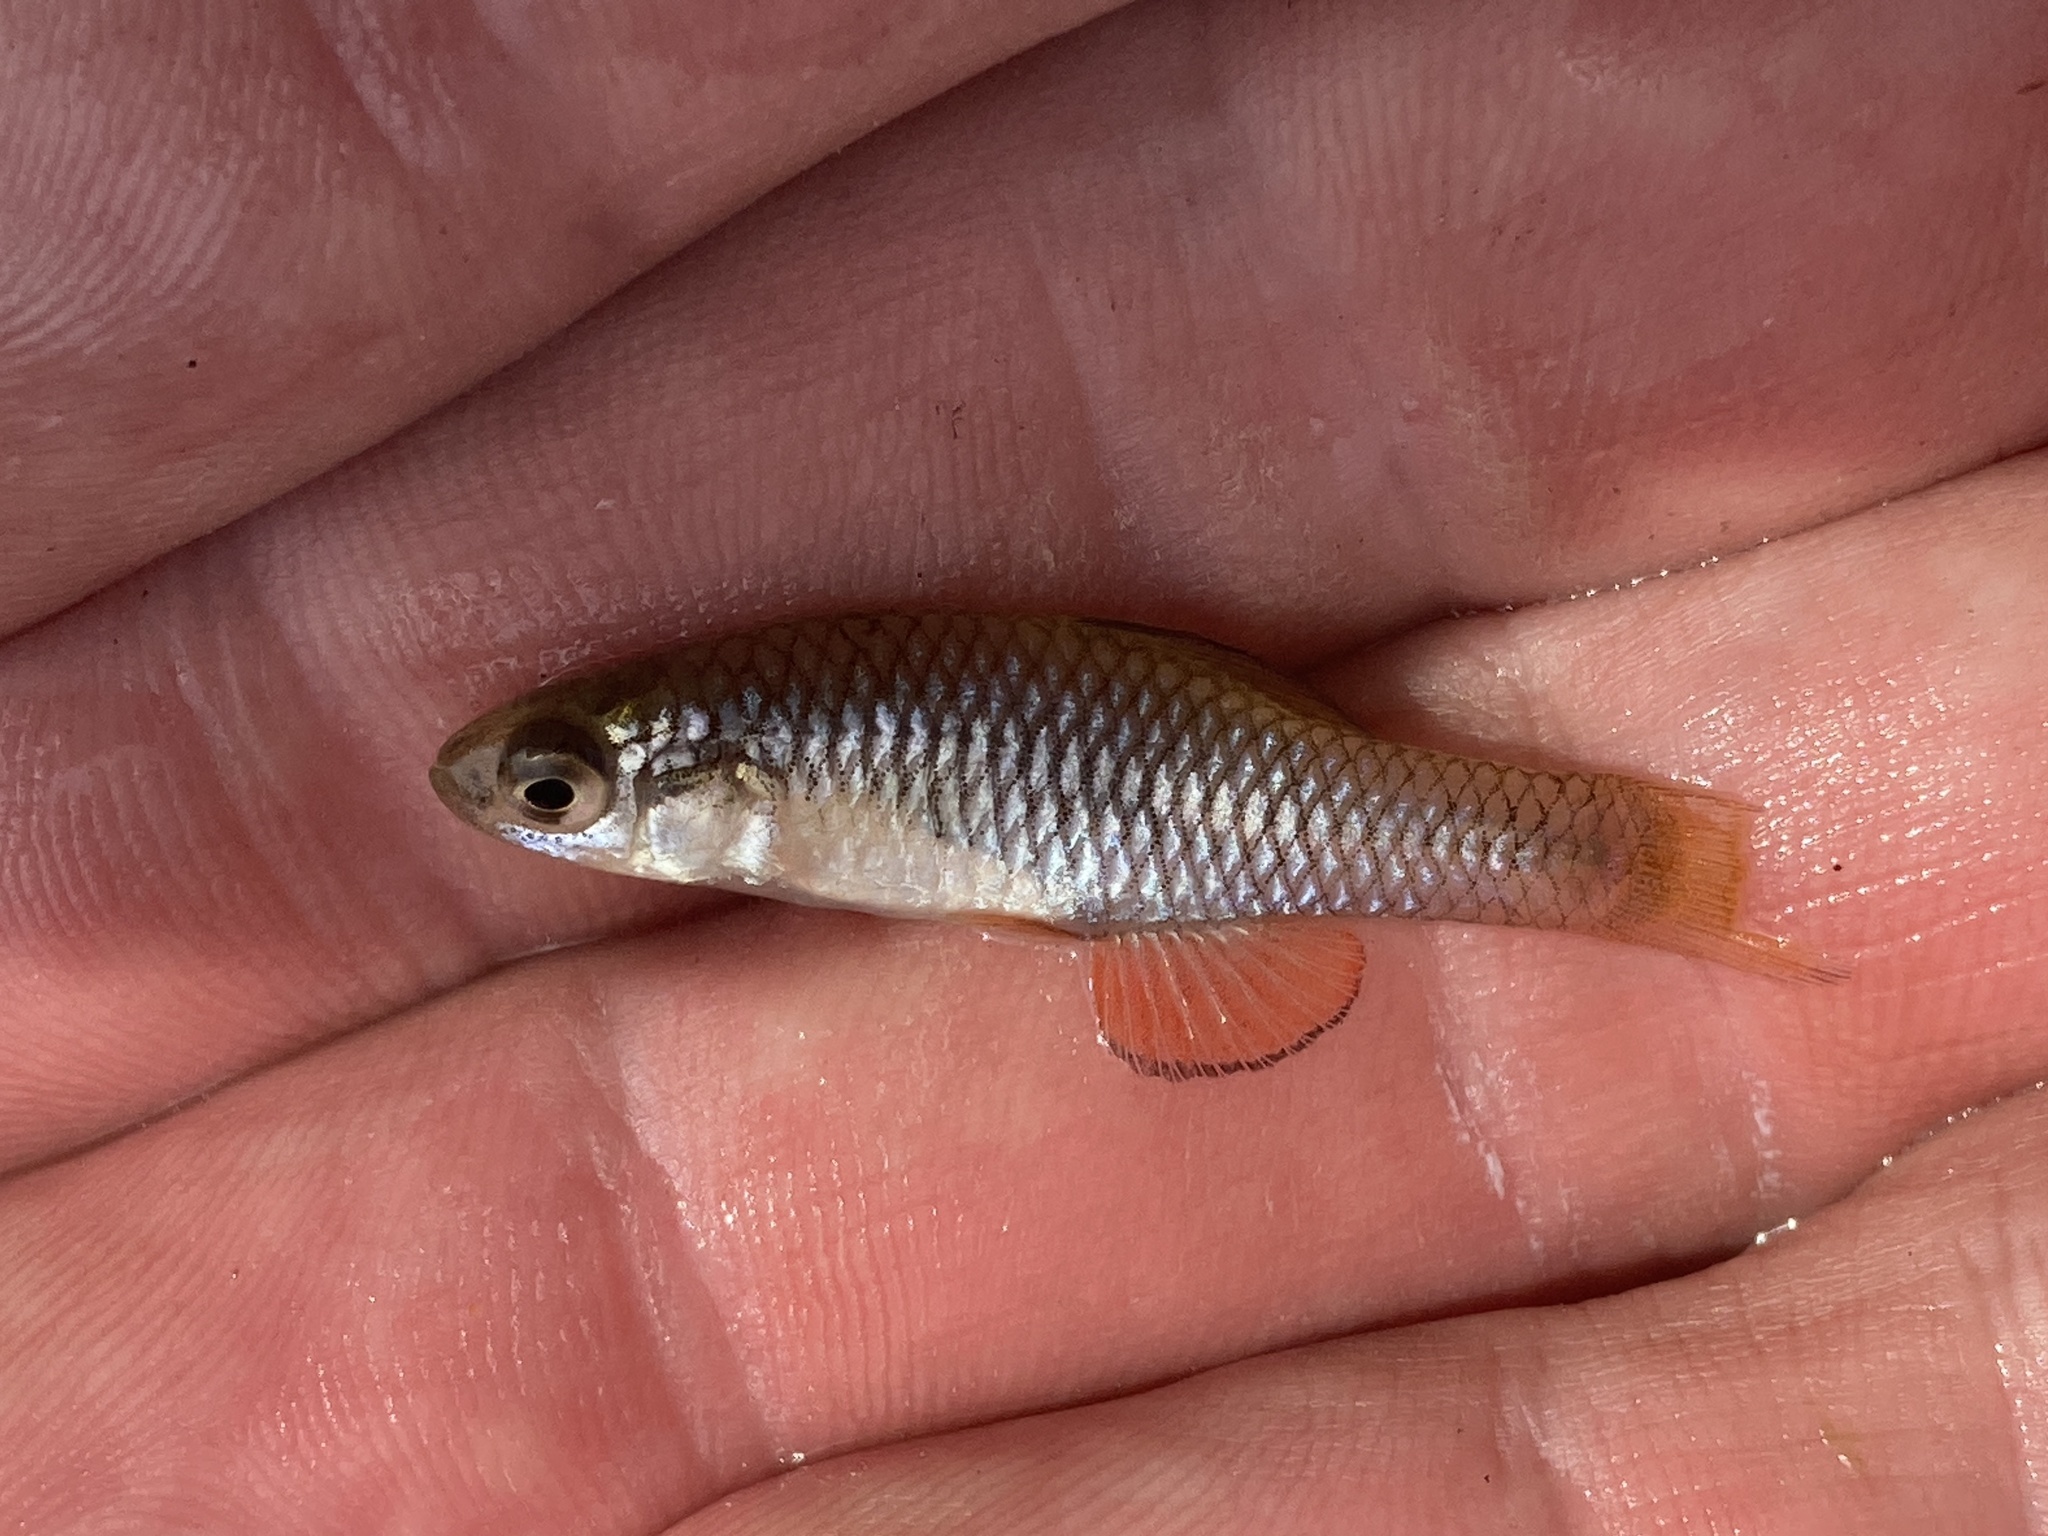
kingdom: Animalia
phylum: Chordata
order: Cyprinodontiformes
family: Fundulidae
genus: Lucania
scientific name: Lucania parva
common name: Rainwater killifish
